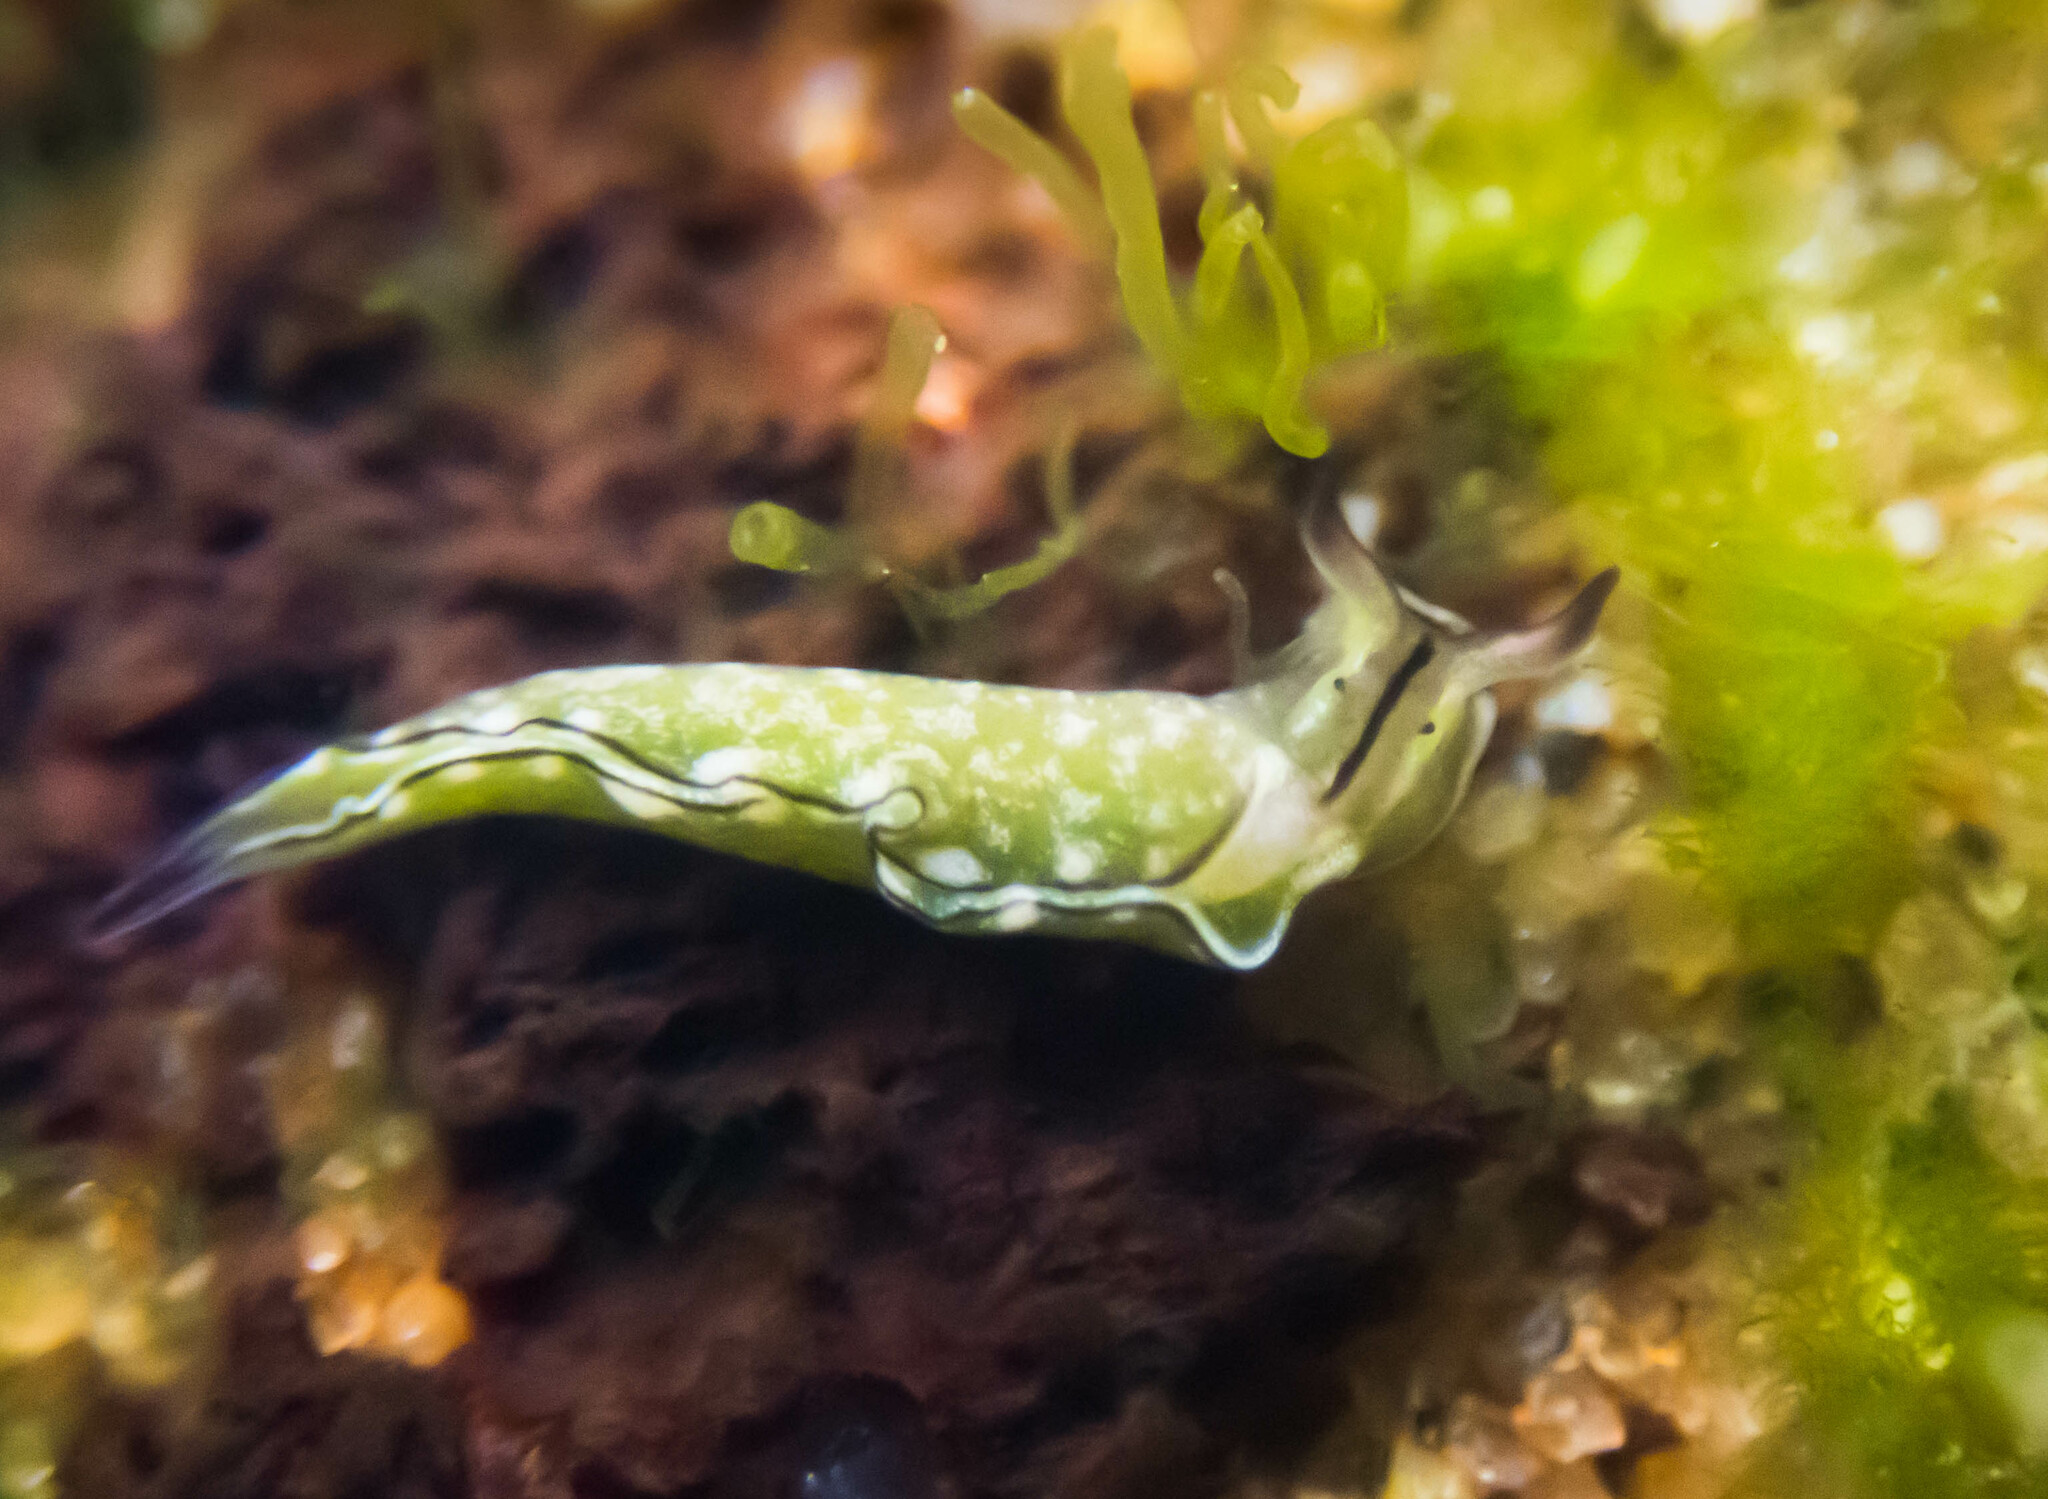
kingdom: Animalia
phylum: Mollusca
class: Gastropoda
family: Plakobranchidae
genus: Elysia
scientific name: Elysia coodgeensis
